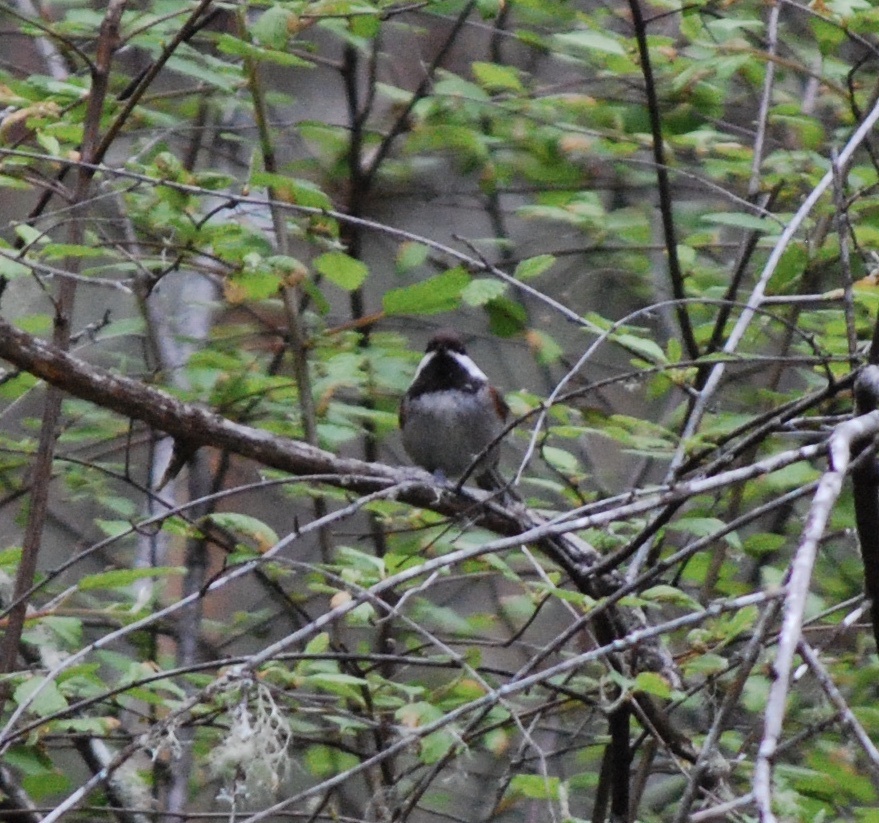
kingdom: Animalia
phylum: Chordata
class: Aves
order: Passeriformes
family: Paridae
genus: Poecile
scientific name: Poecile rufescens
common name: Chestnut-backed chickadee
